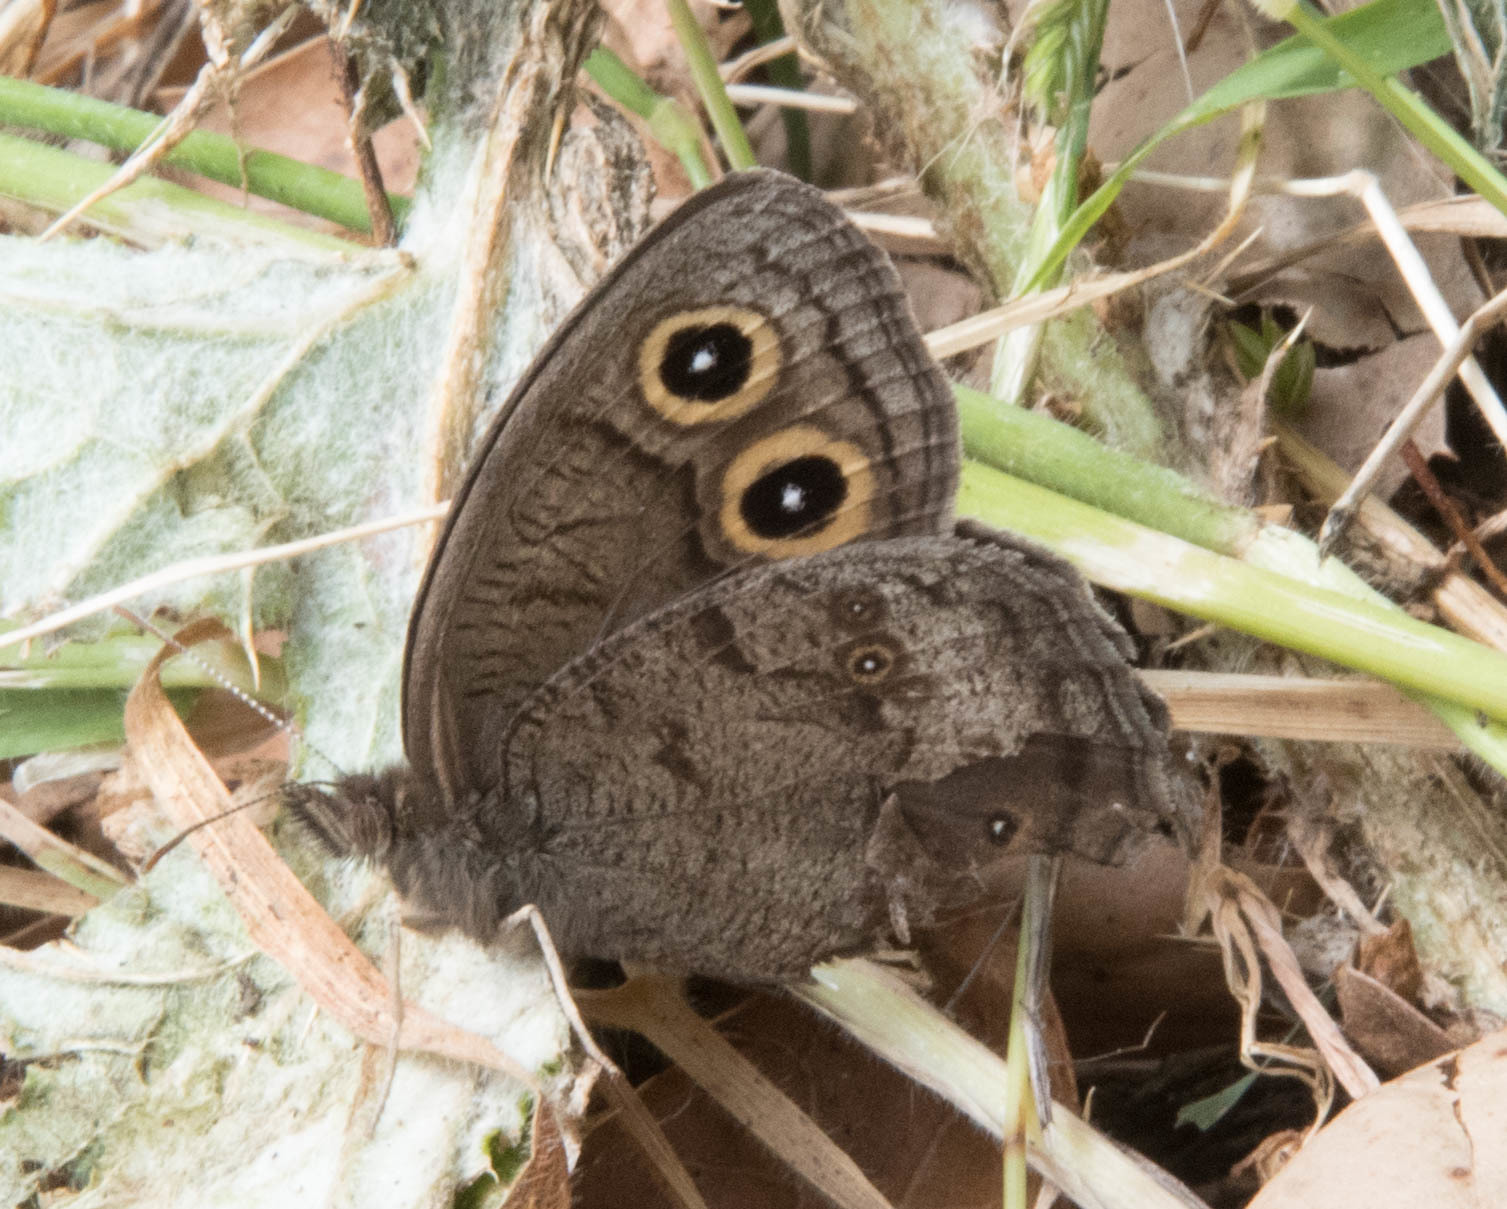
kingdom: Animalia
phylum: Arthropoda
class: Insecta
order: Lepidoptera
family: Nymphalidae
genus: Cercyonis
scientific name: Cercyonis pegala
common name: Common wood-nymph
